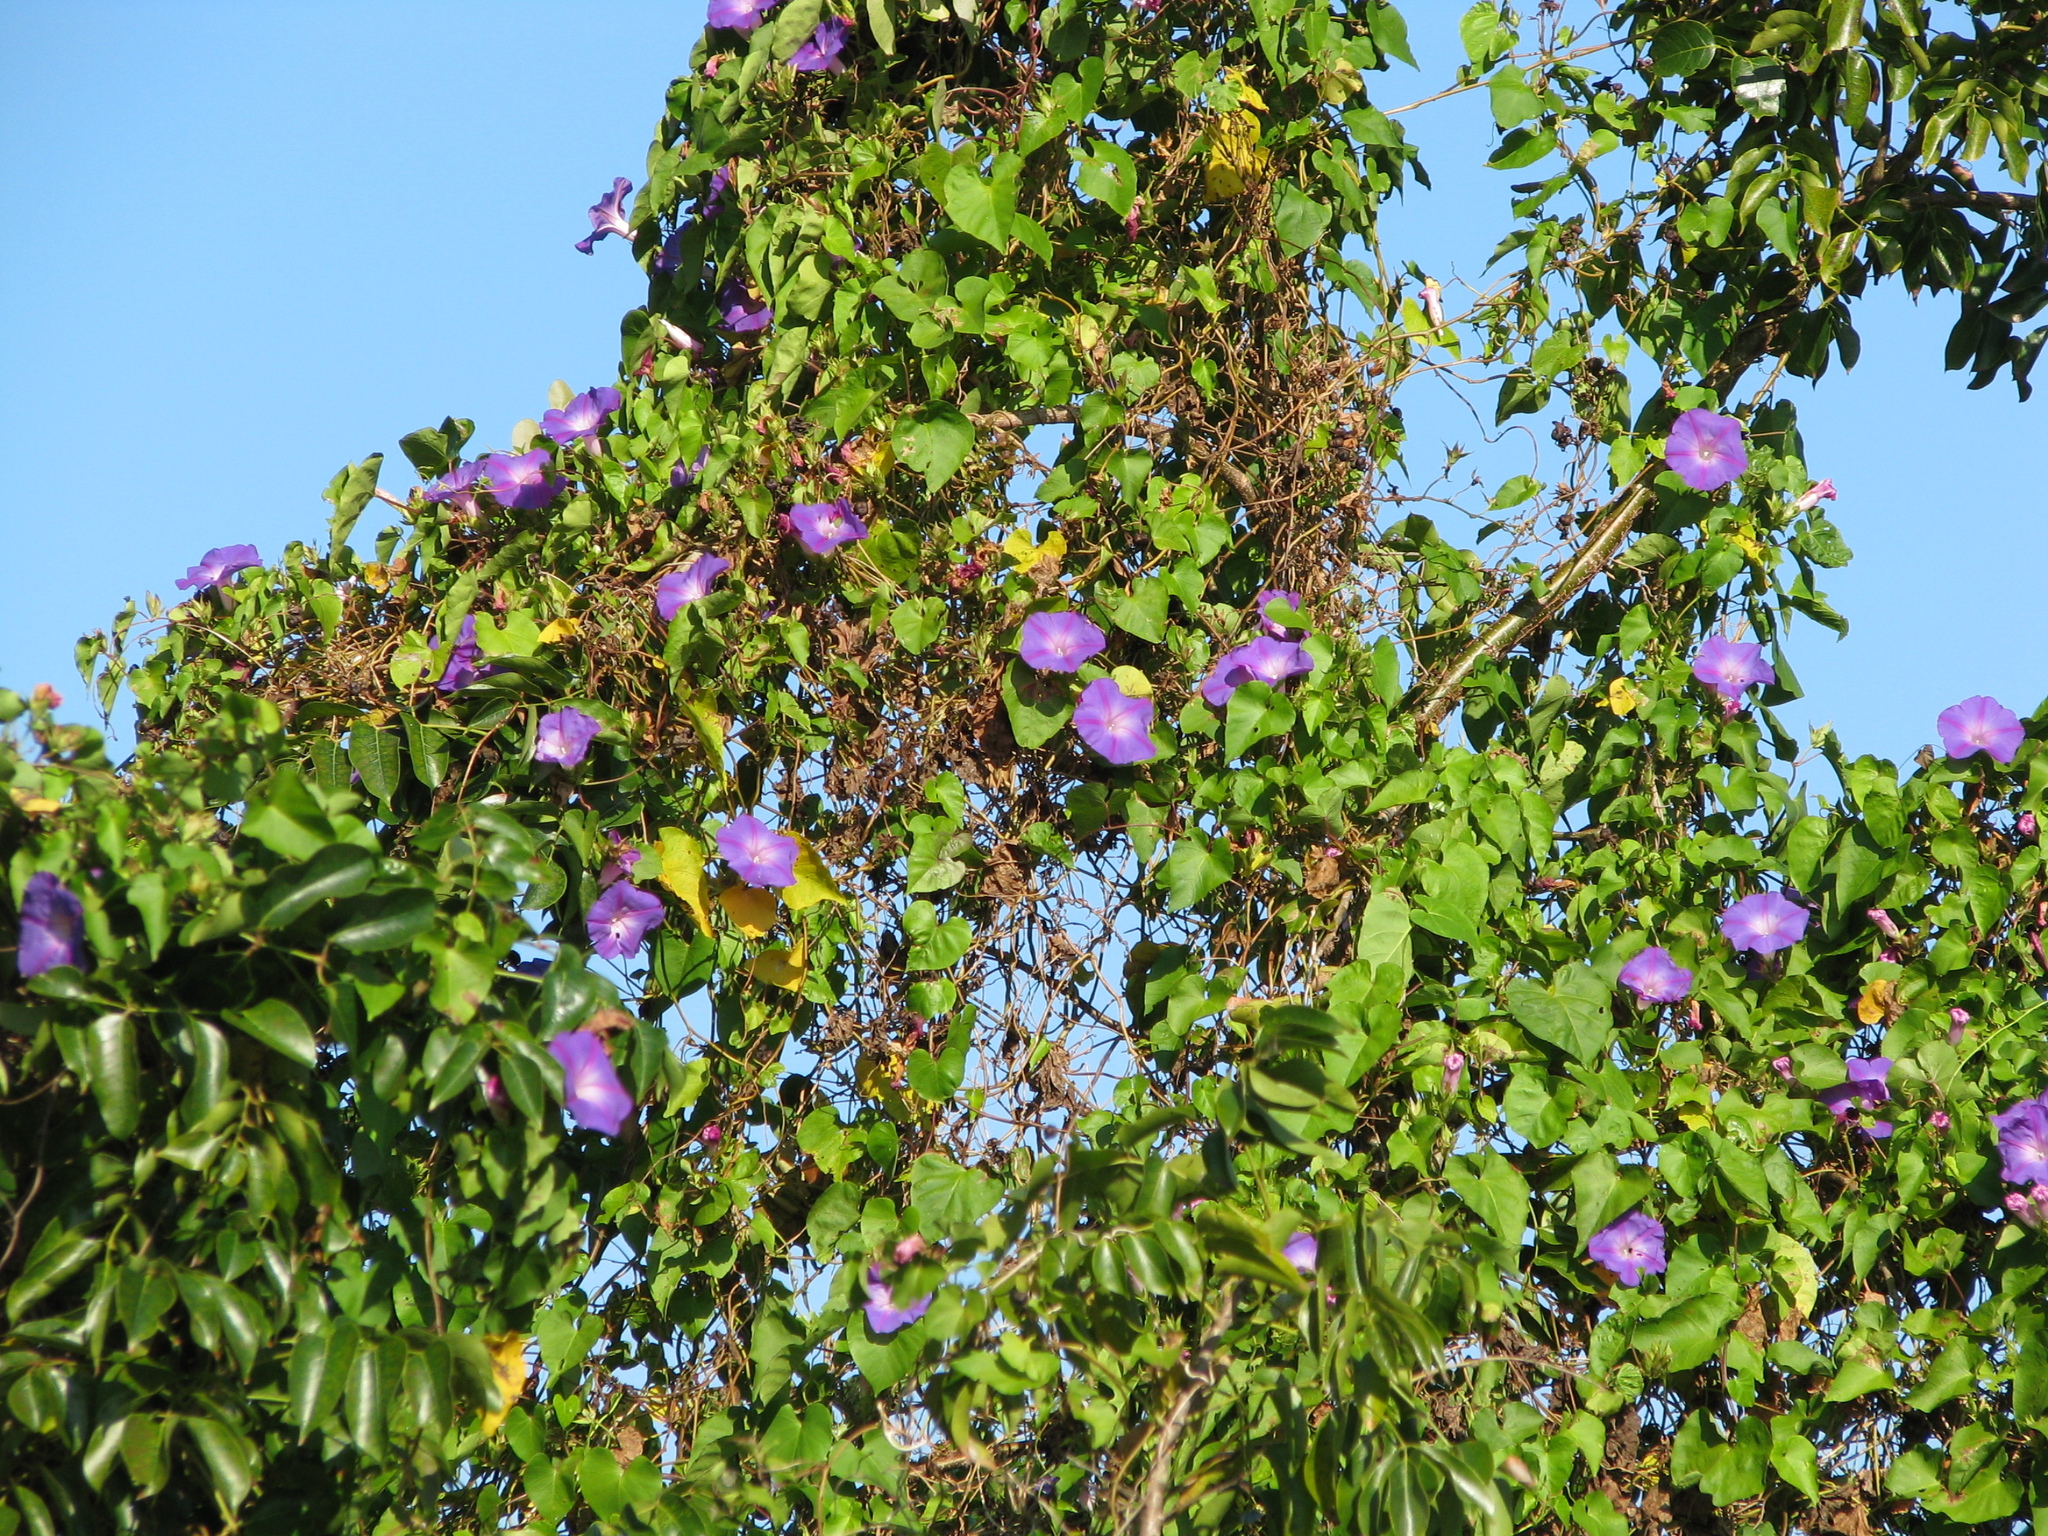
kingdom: Plantae
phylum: Tracheophyta
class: Magnoliopsida
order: Solanales
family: Convolvulaceae
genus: Ipomoea
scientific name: Ipomoea indica
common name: Blue dawnflower
